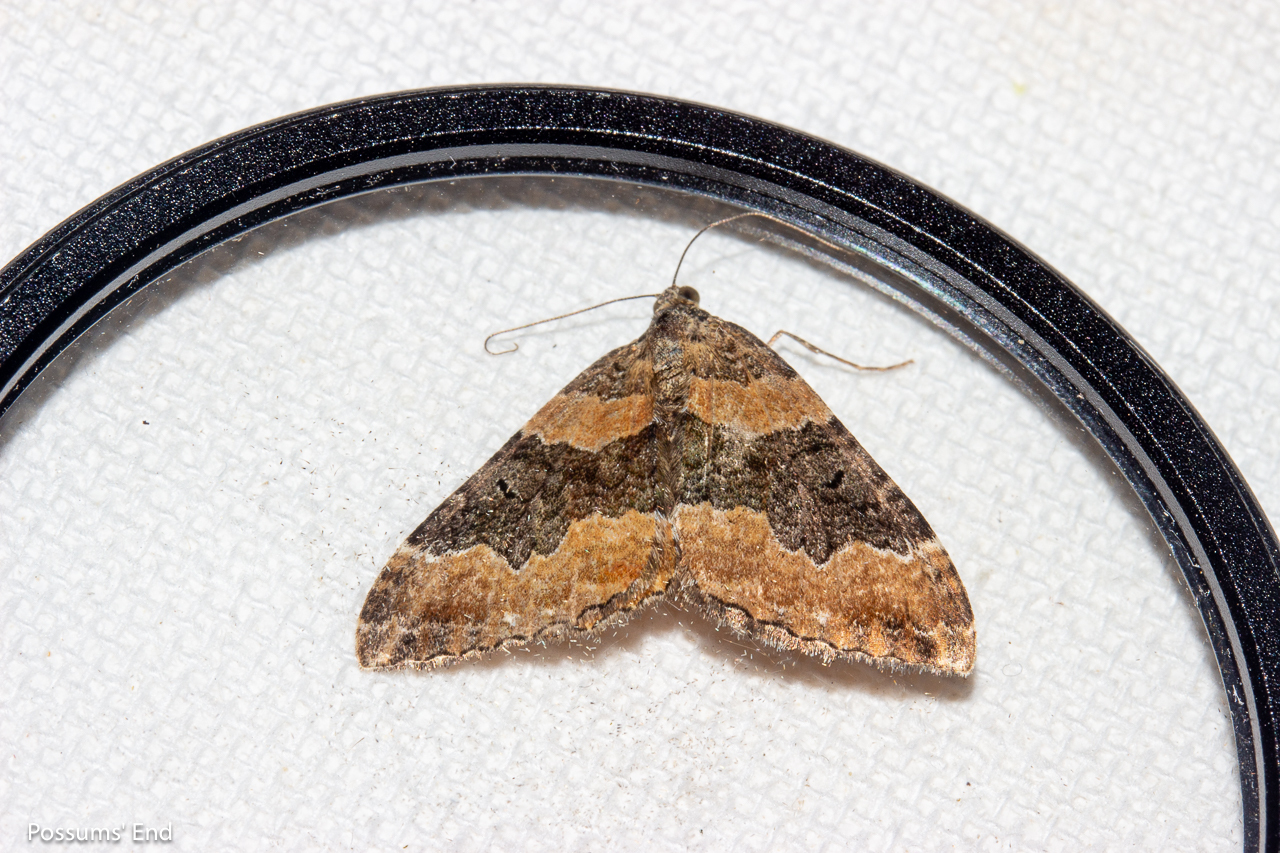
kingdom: Animalia
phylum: Arthropoda
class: Insecta
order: Lepidoptera
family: Geometridae
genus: Hydriomena
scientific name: Hydriomena hemizona
